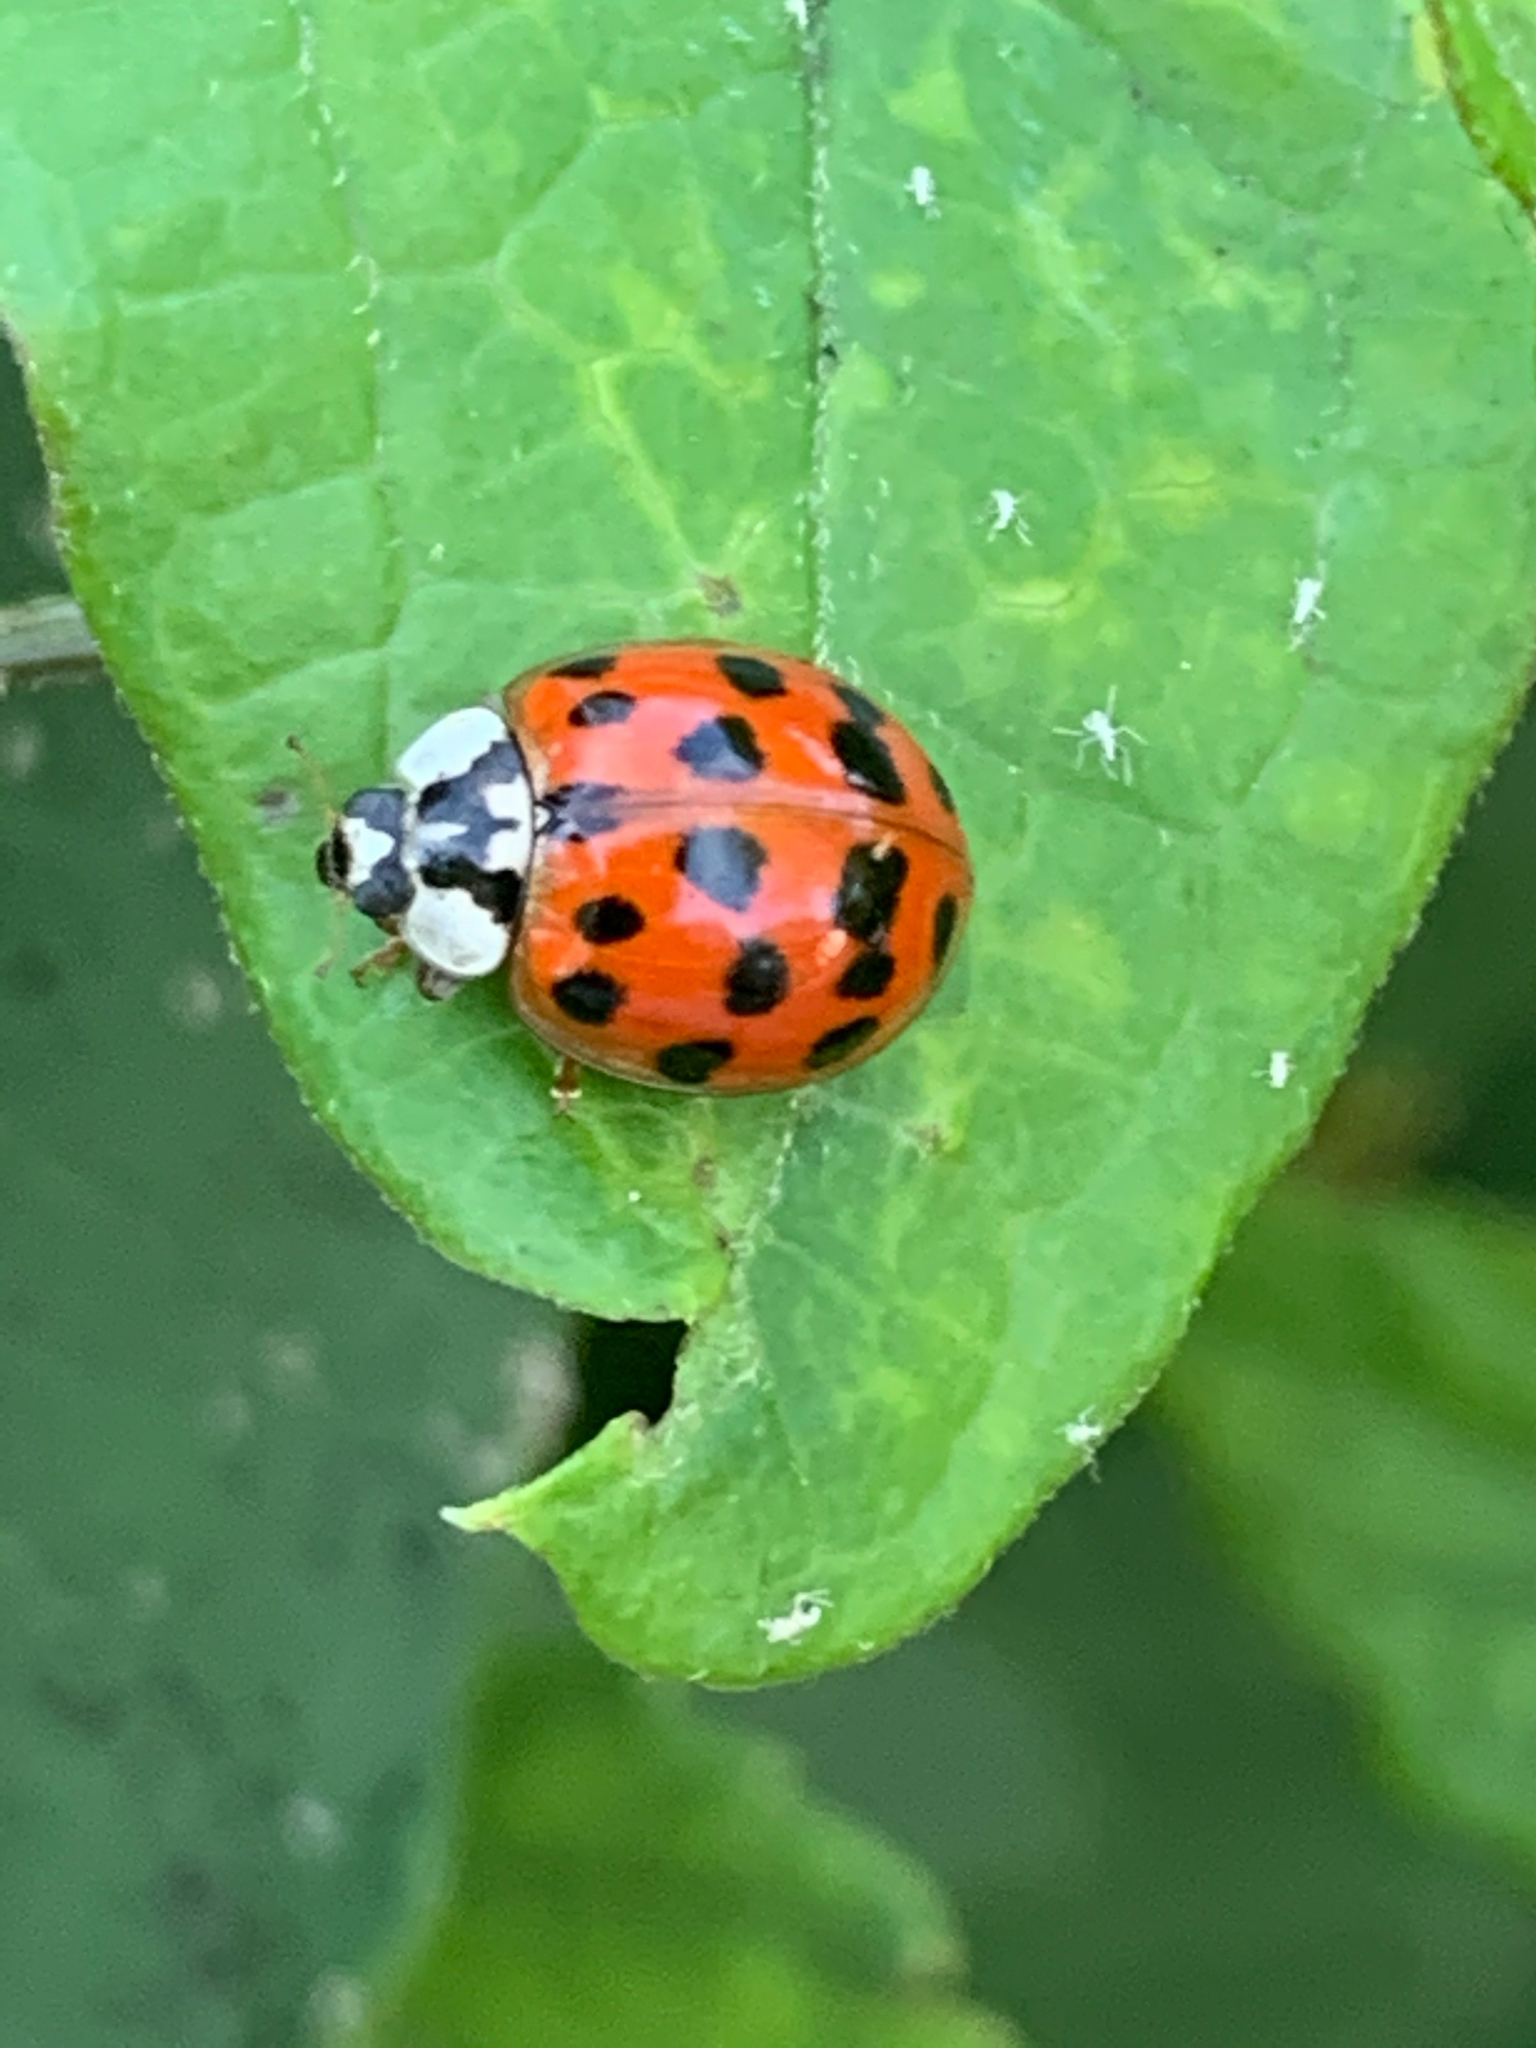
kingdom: Animalia
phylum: Arthropoda
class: Insecta
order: Coleoptera
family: Coccinellidae
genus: Harmonia
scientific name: Harmonia axyridis
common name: Harlequin ladybird
